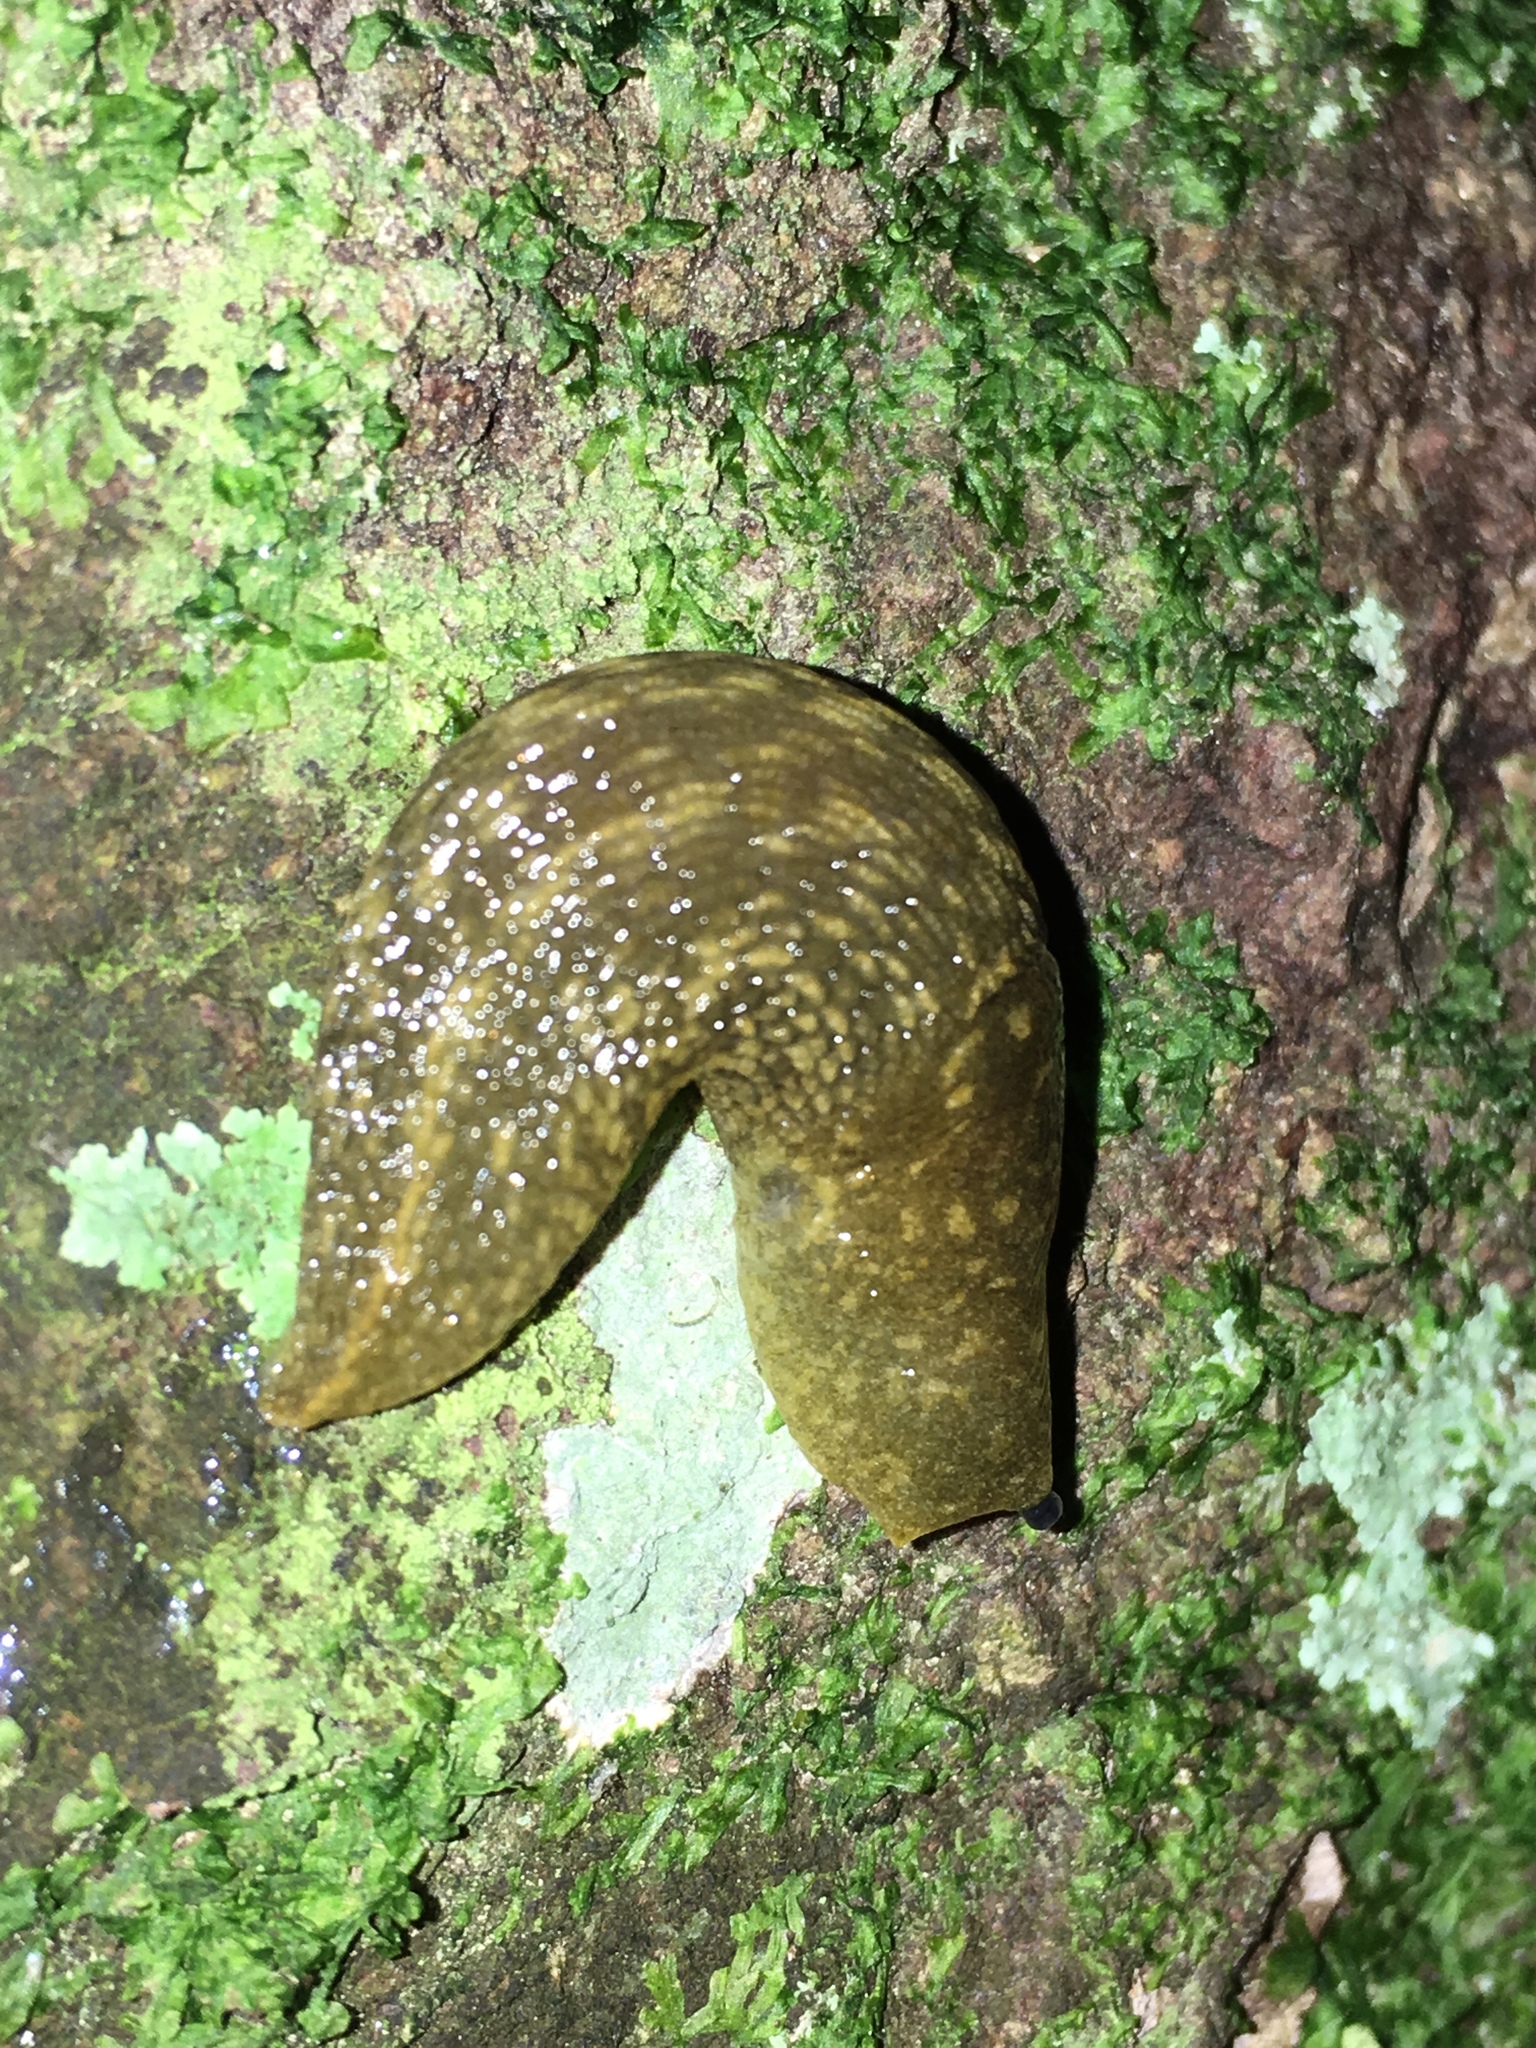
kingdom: Animalia
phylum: Mollusca
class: Gastropoda
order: Stylommatophora
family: Limacidae
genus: Limacus
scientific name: Limacus flavus
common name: Yellow gardenslug
